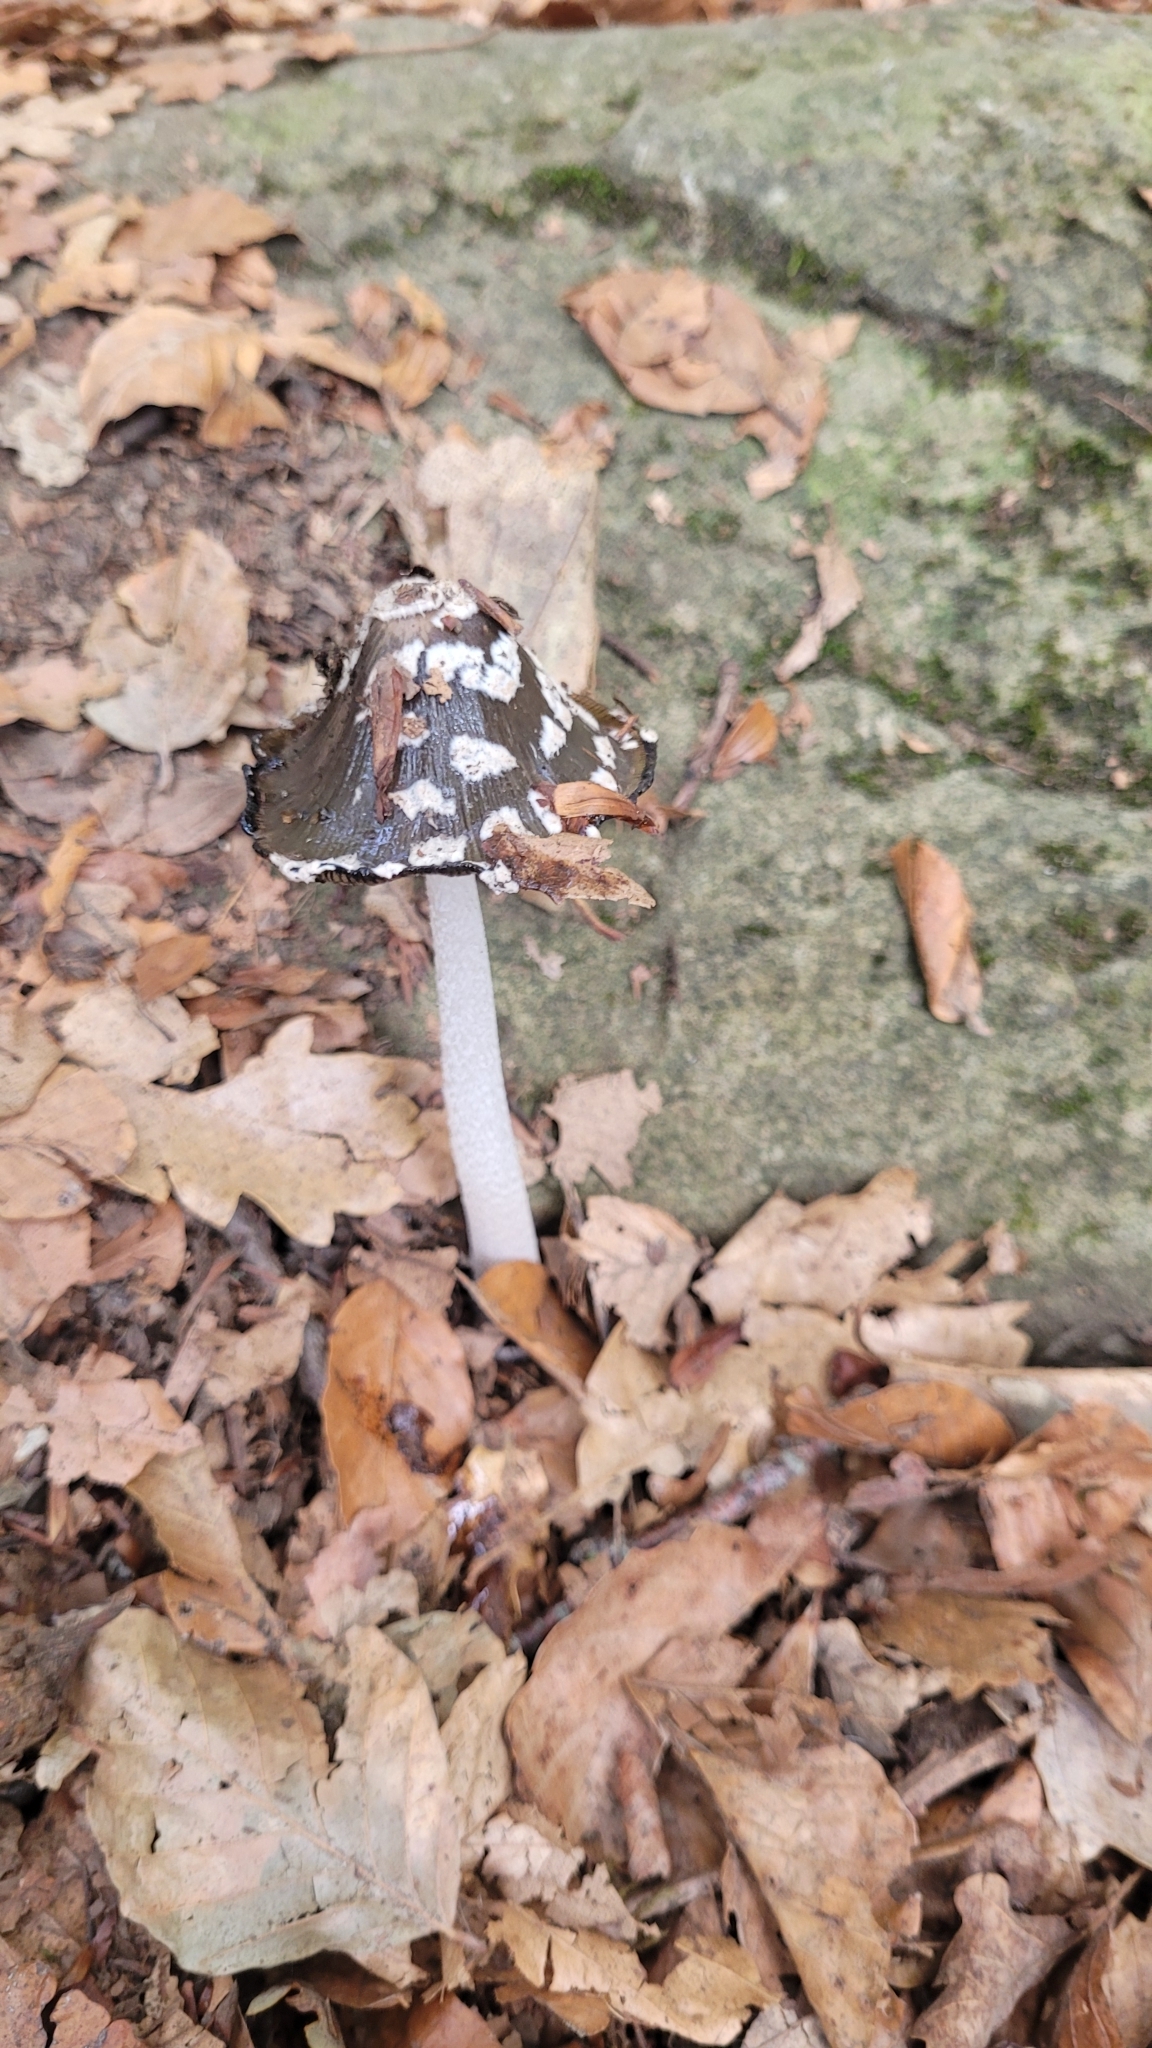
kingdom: Fungi
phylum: Basidiomycota
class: Agaricomycetes
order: Agaricales
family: Psathyrellaceae
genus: Coprinopsis
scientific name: Coprinopsis picacea
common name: Magpie inkcap
